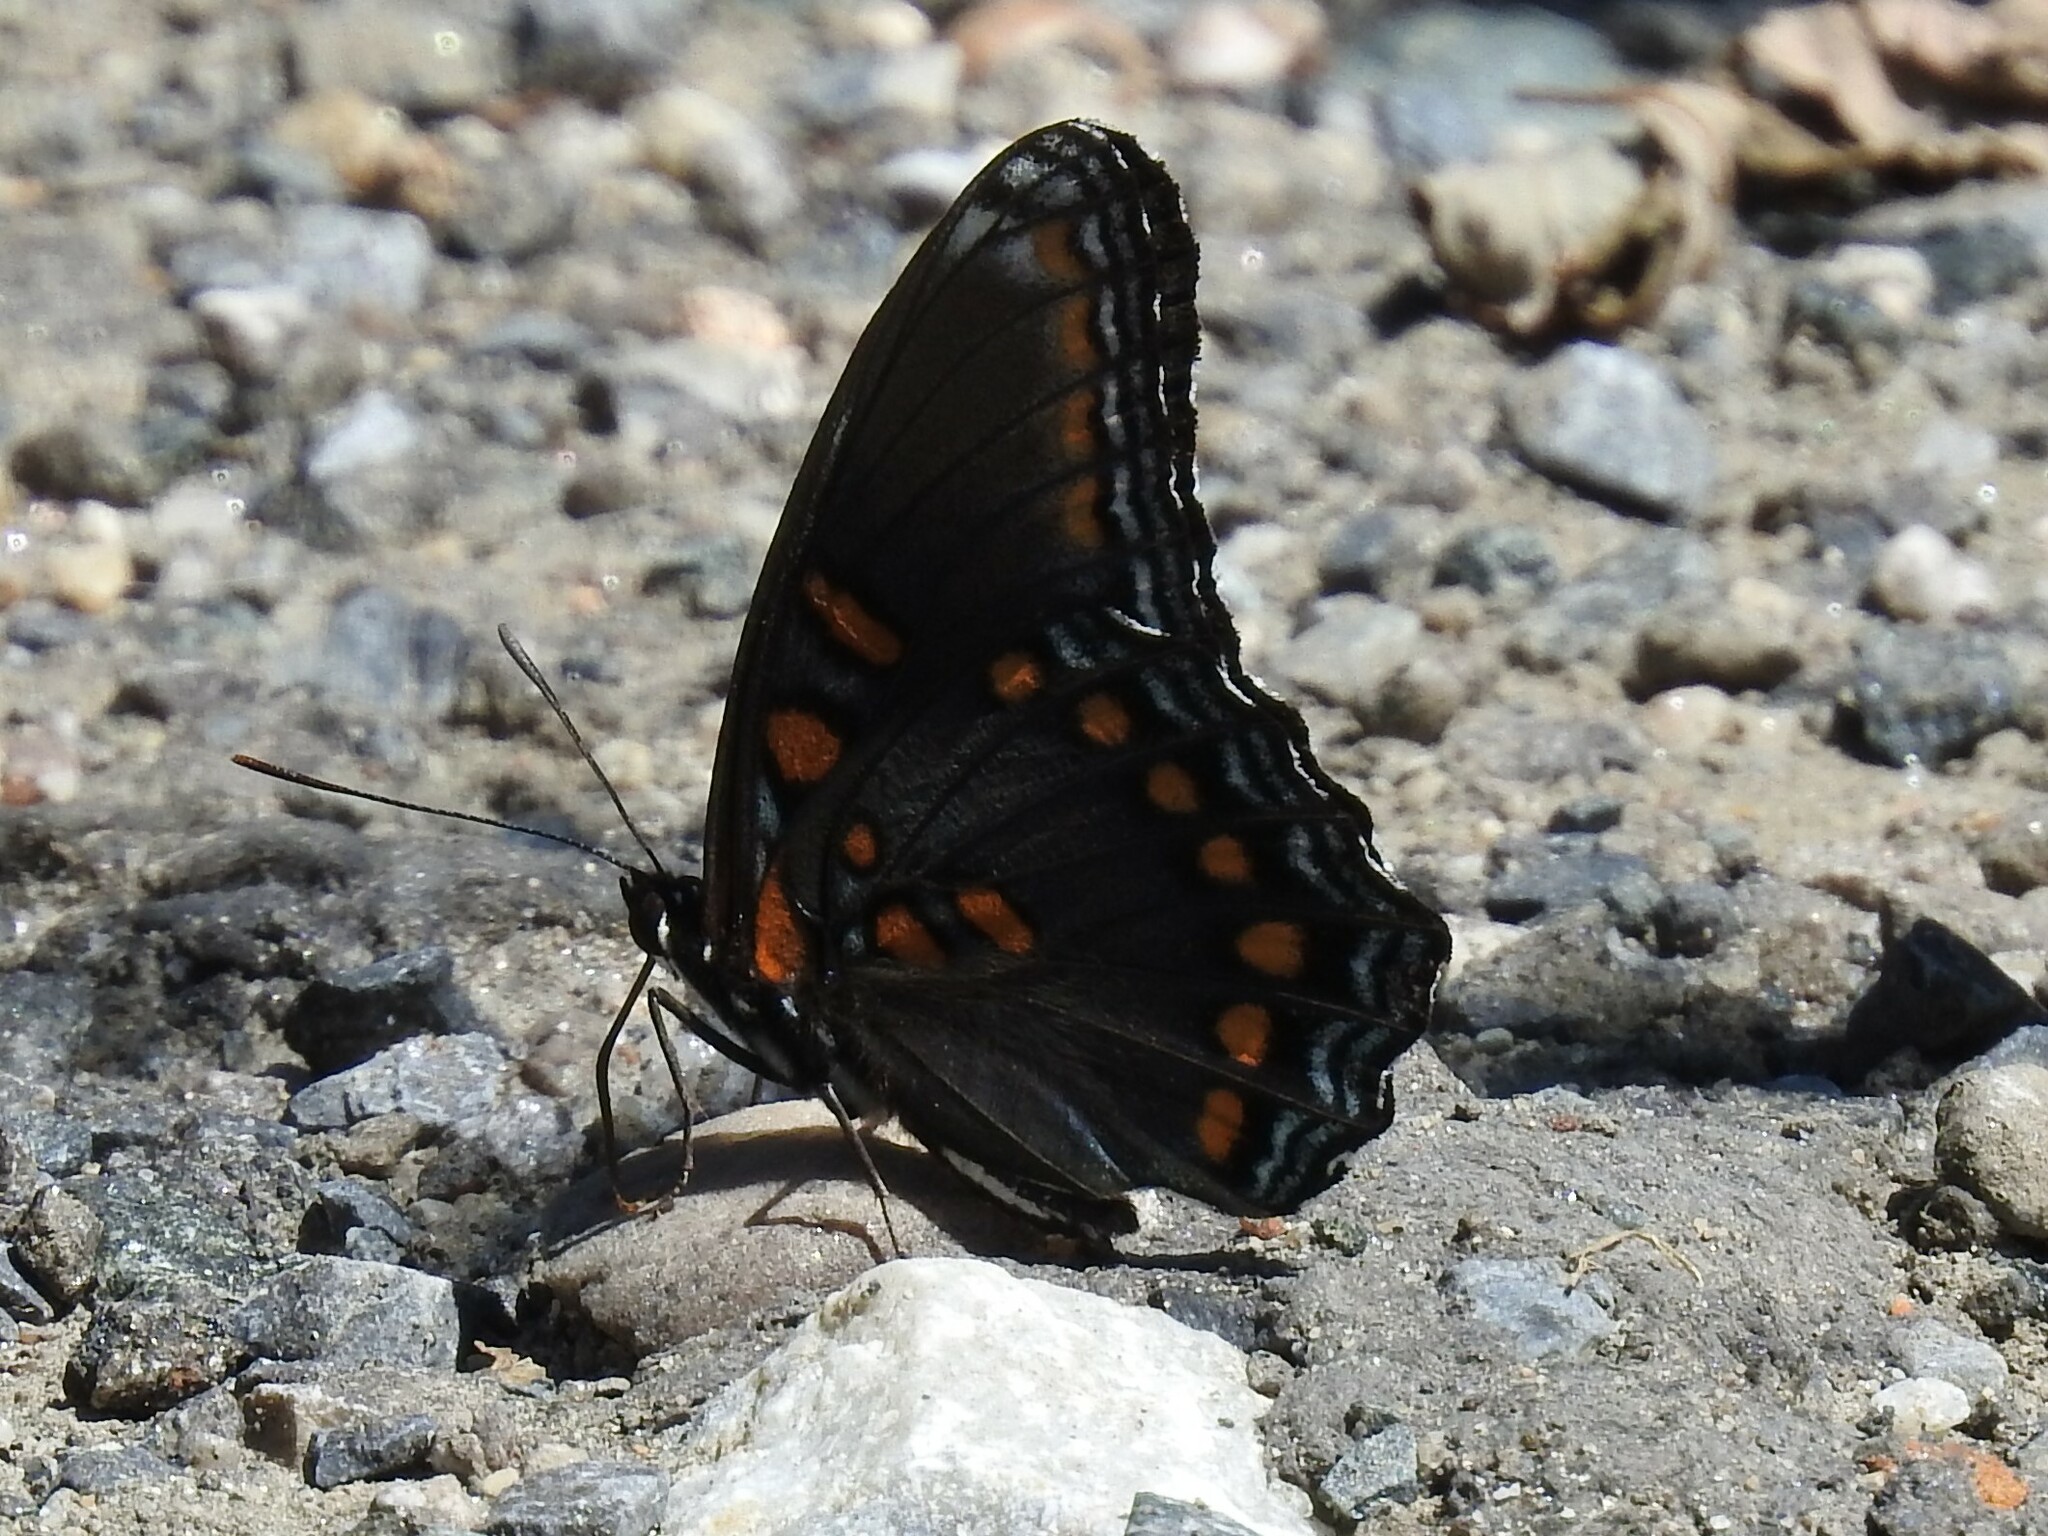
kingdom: Animalia
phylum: Arthropoda
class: Insecta
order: Lepidoptera
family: Nymphalidae
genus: Limenitis
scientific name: Limenitis astyanax
